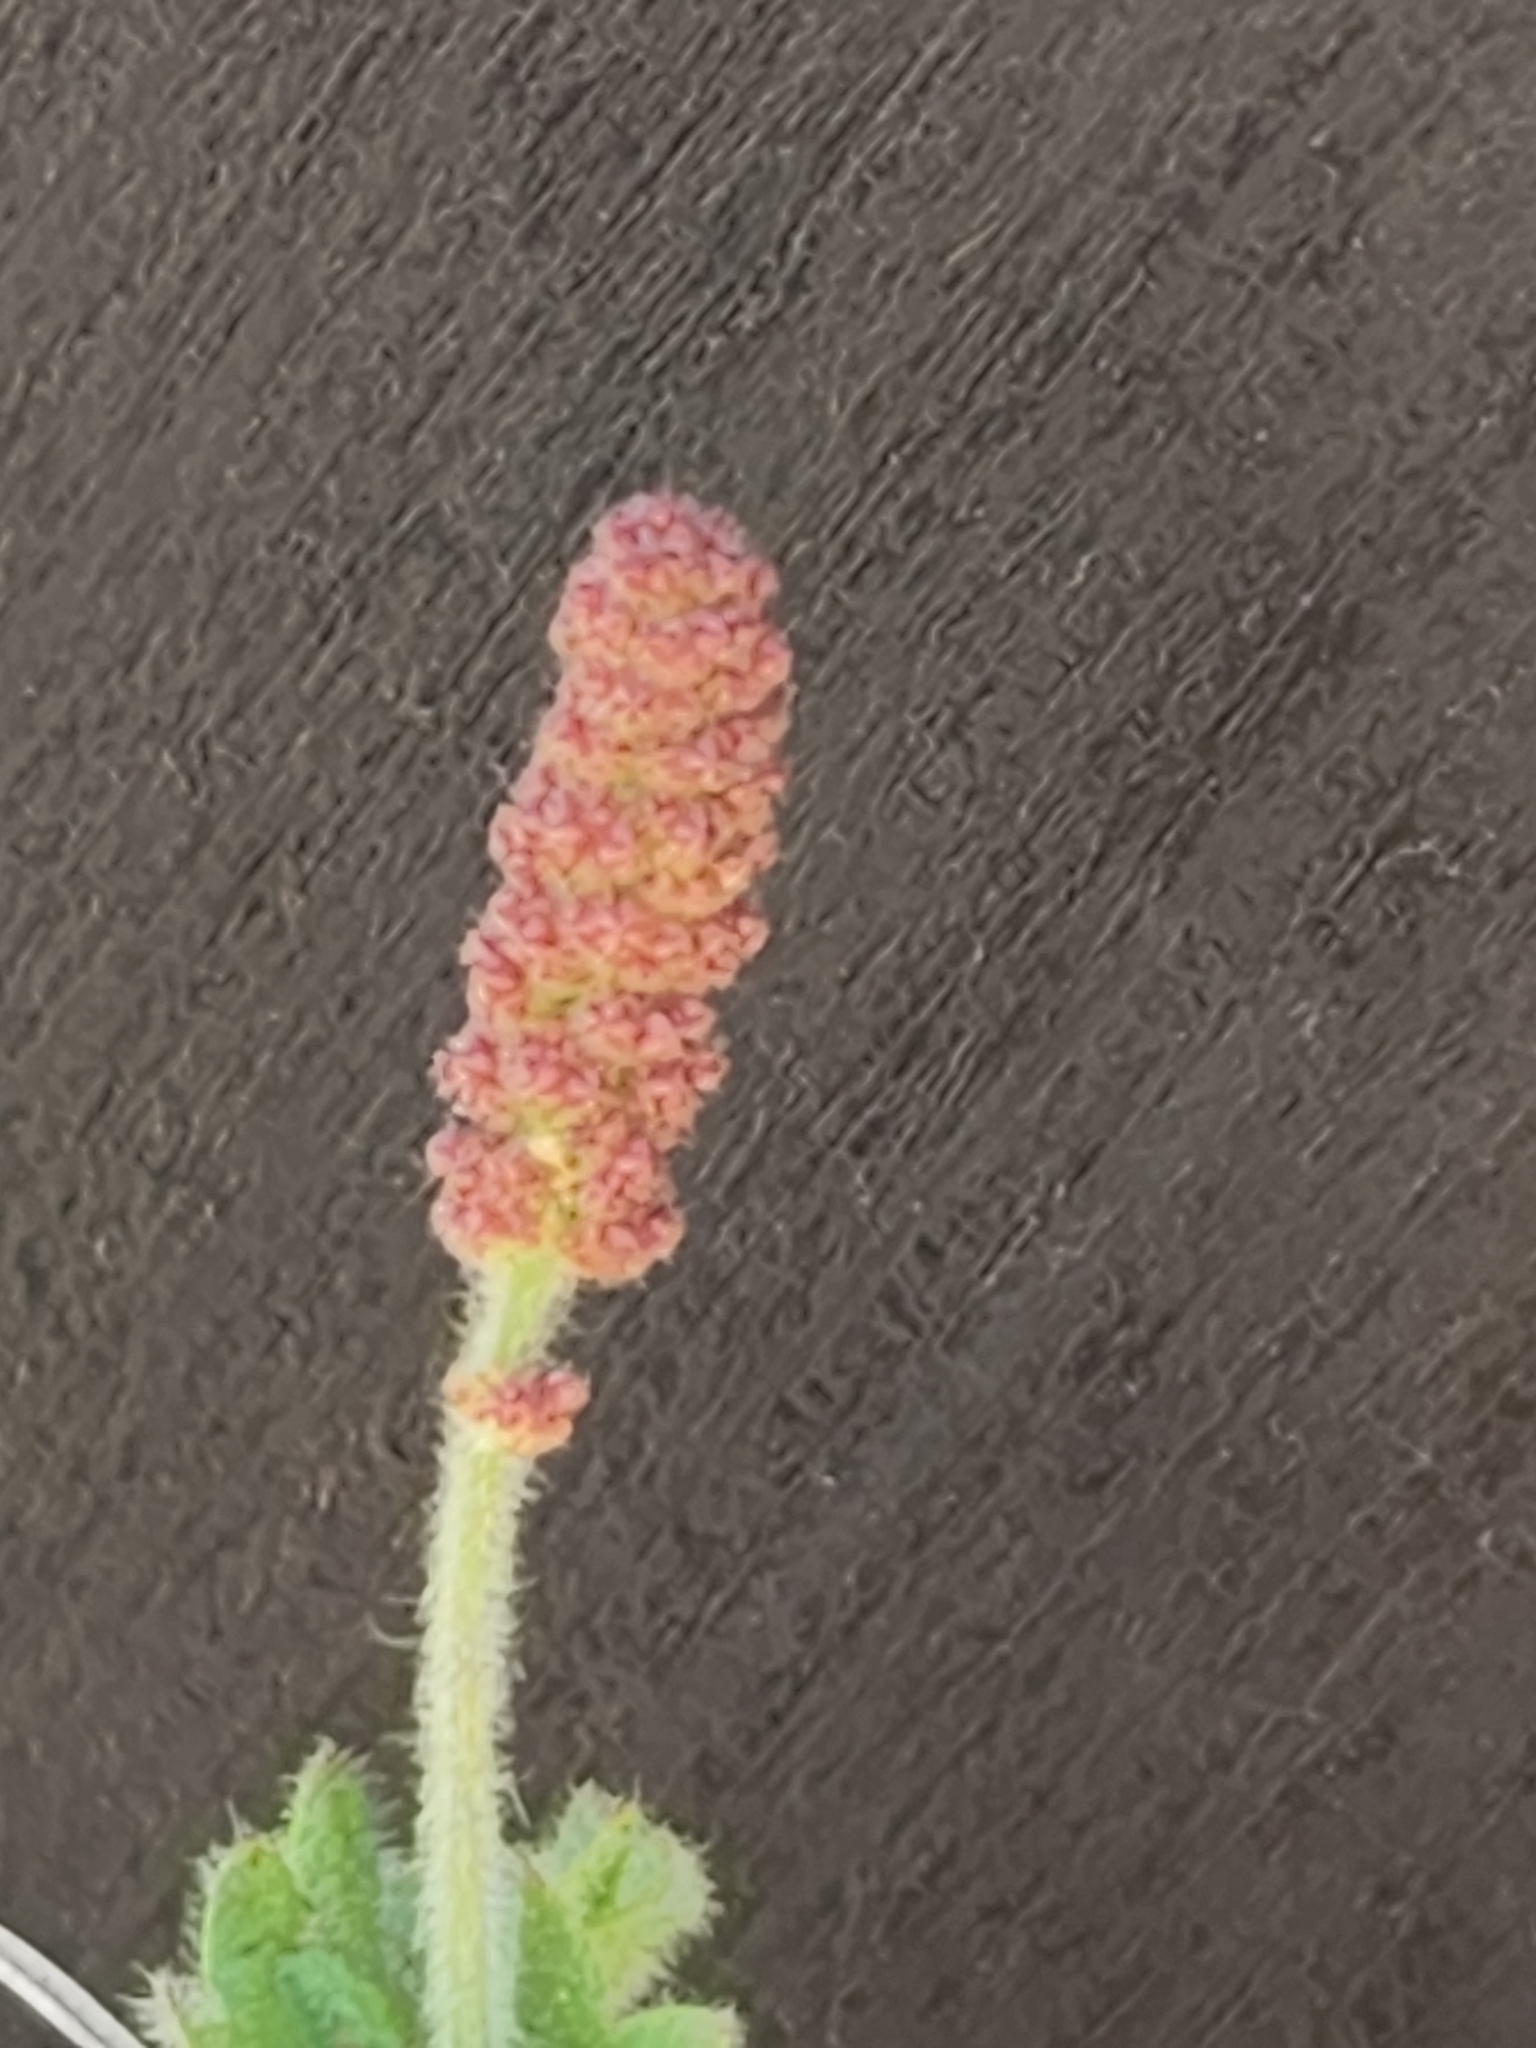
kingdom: Plantae
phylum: Tracheophyta
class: Magnoliopsida
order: Malpighiales
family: Euphorbiaceae
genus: Acalypha
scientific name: Acalypha monostachya
